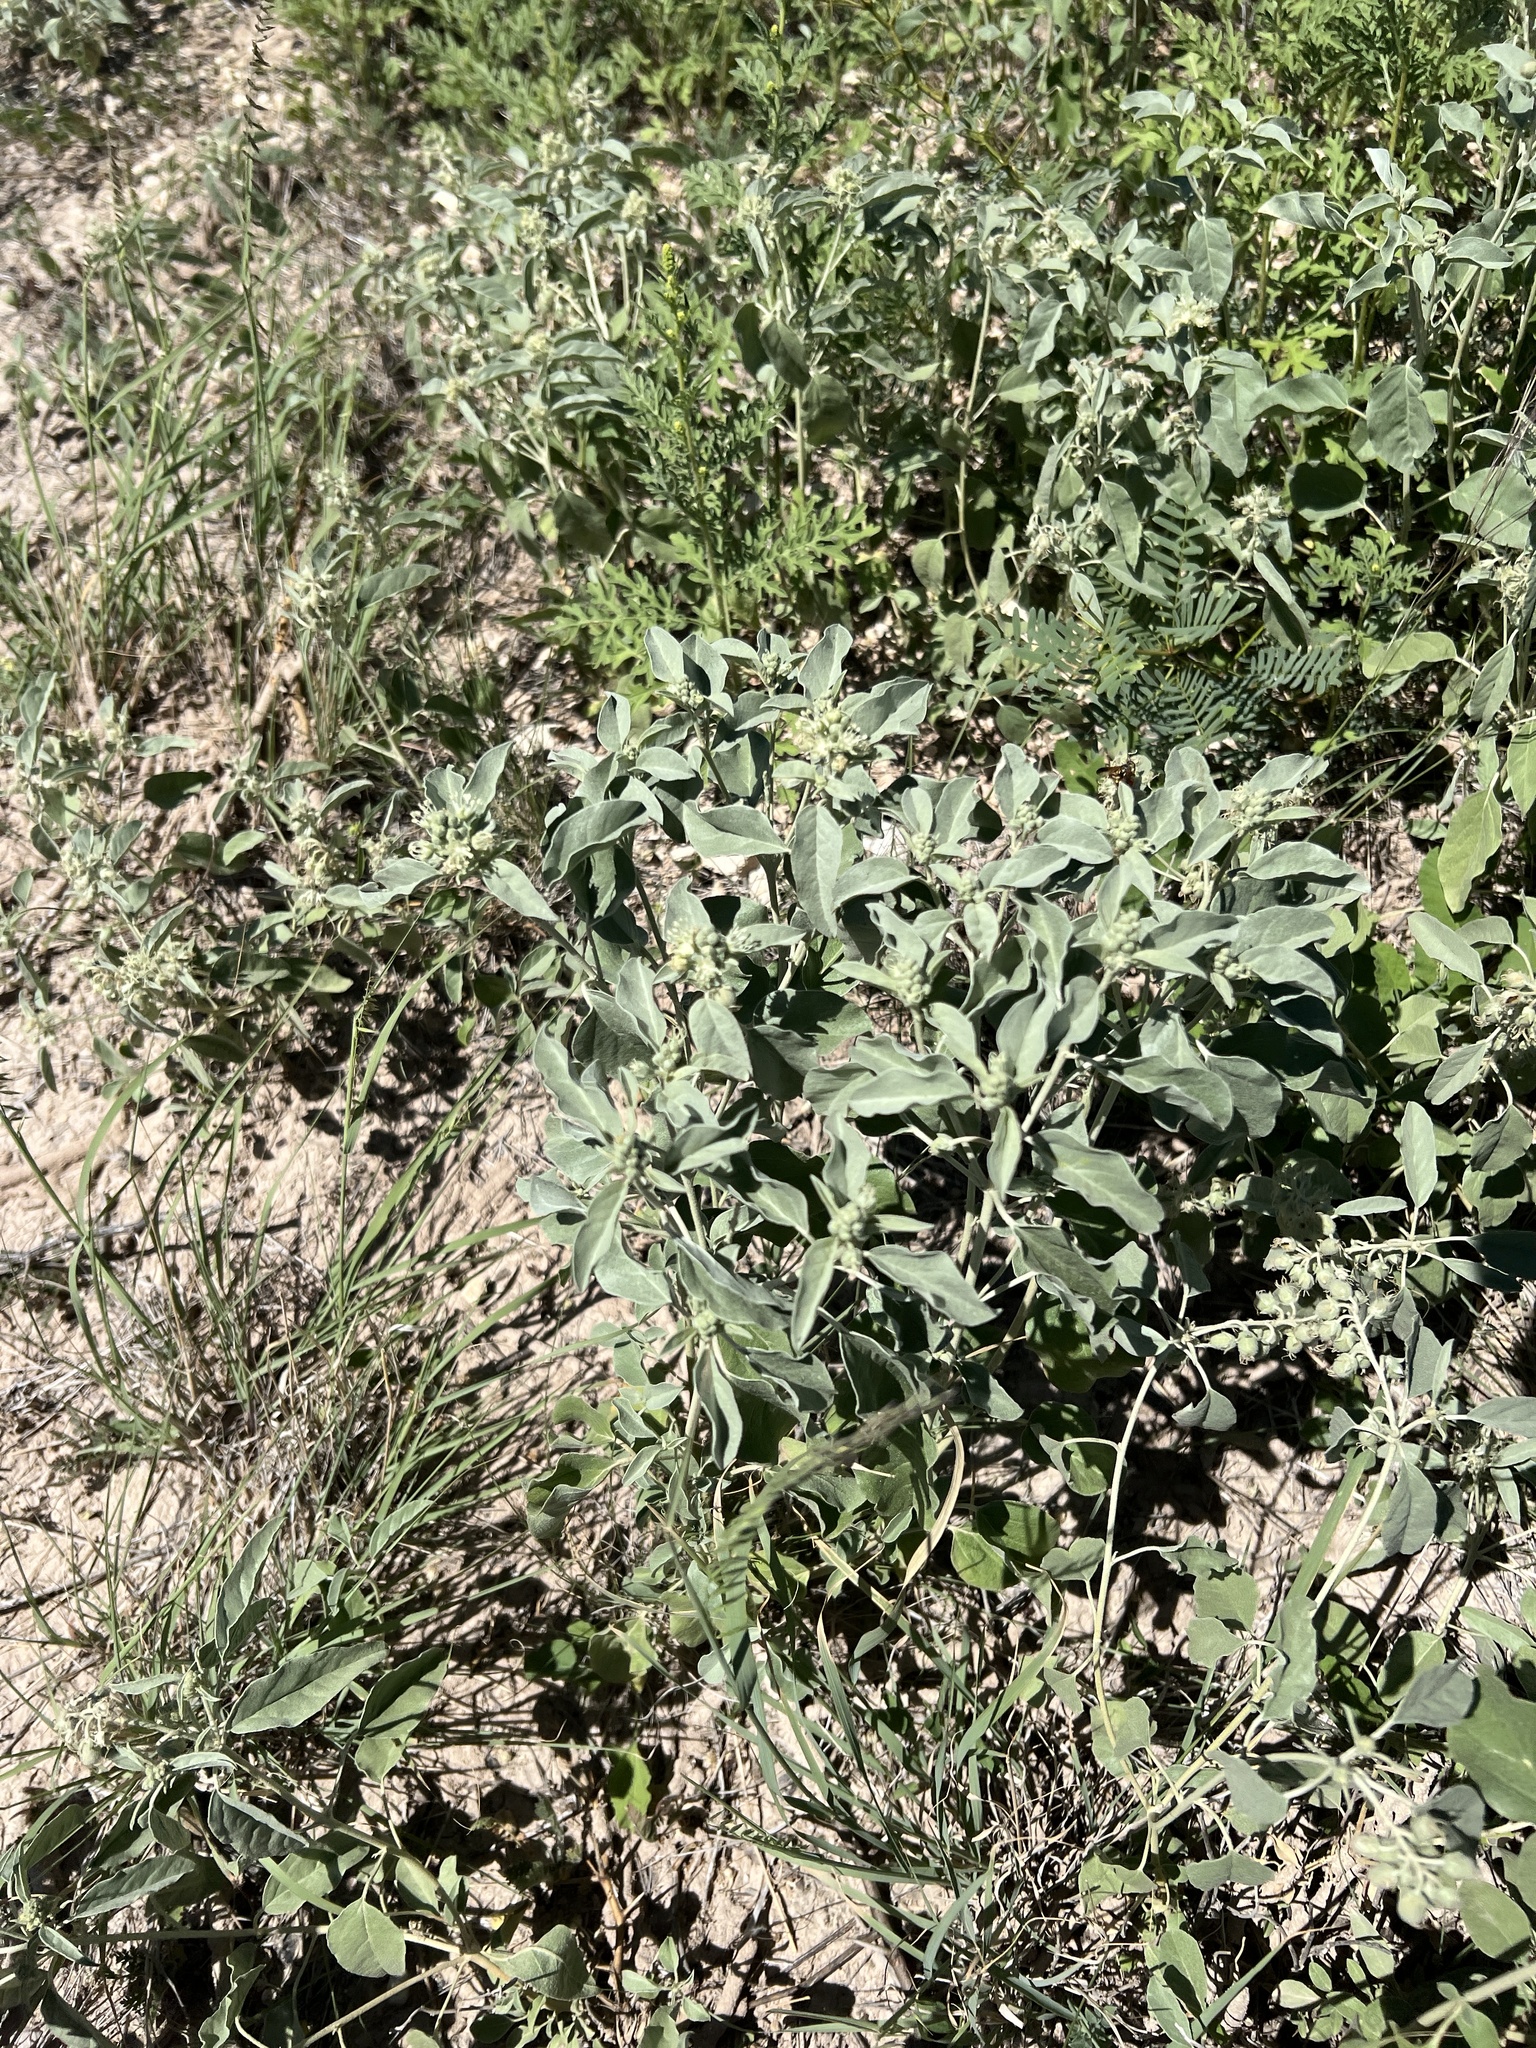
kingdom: Plantae
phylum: Tracheophyta
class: Magnoliopsida
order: Malpighiales
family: Euphorbiaceae
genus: Croton
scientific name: Croton pottsii
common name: Leatherweed
